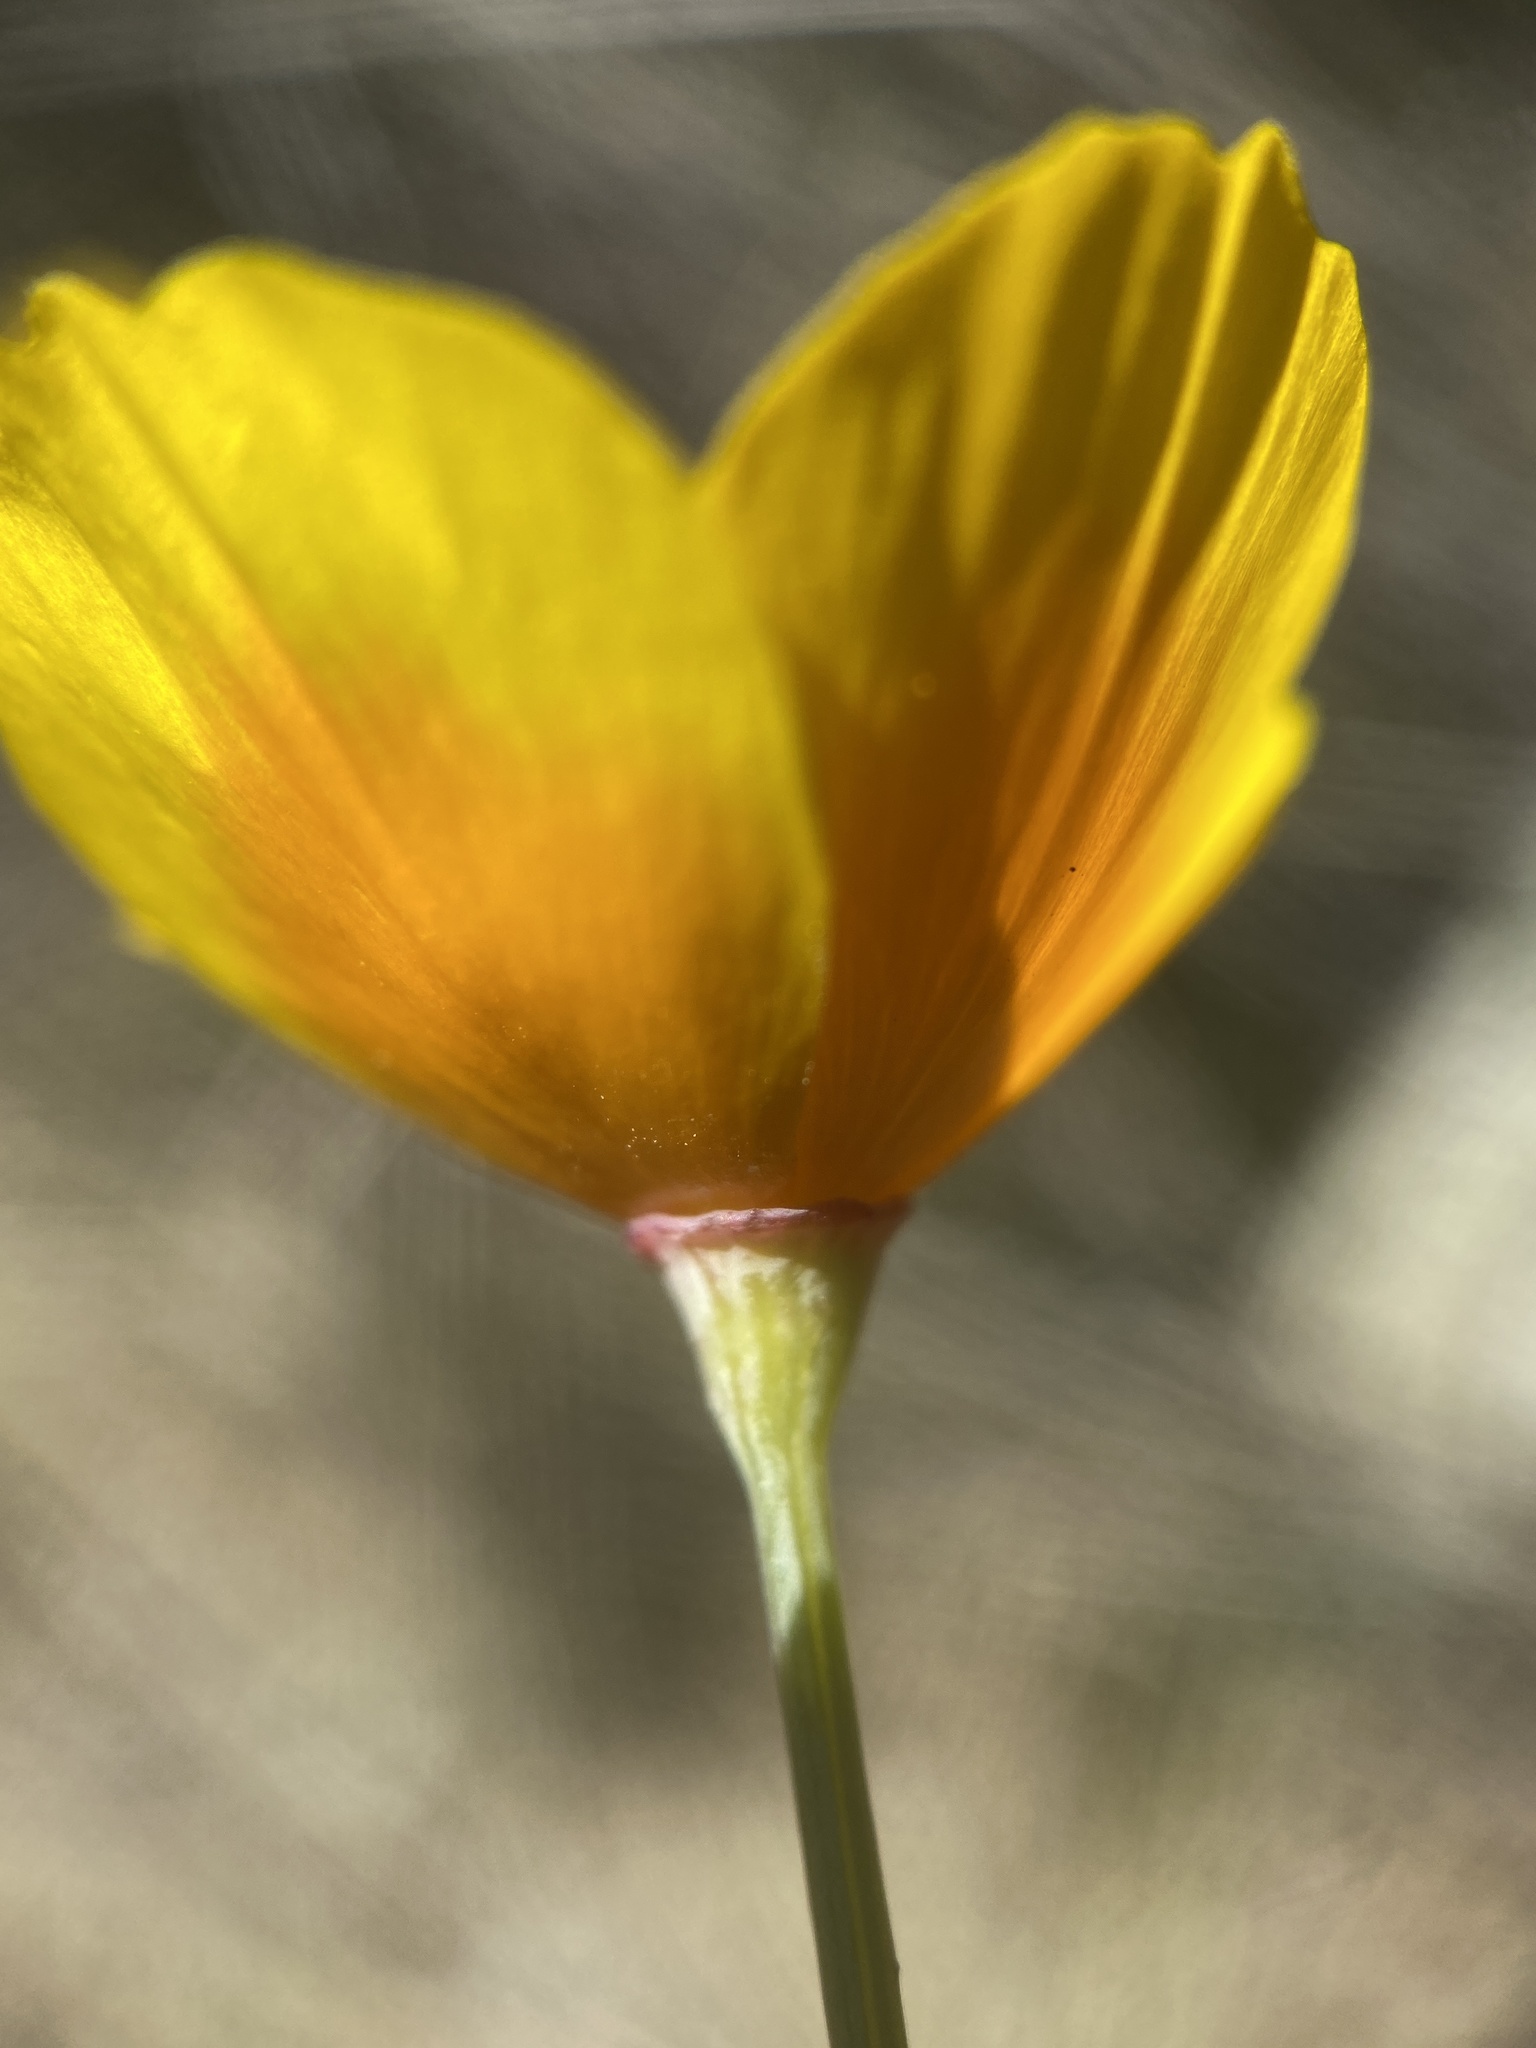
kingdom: Plantae
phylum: Tracheophyta
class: Magnoliopsida
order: Ranunculales
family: Papaveraceae
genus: Eschscholzia
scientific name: Eschscholzia caespitosa
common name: Tufted california-poppy
